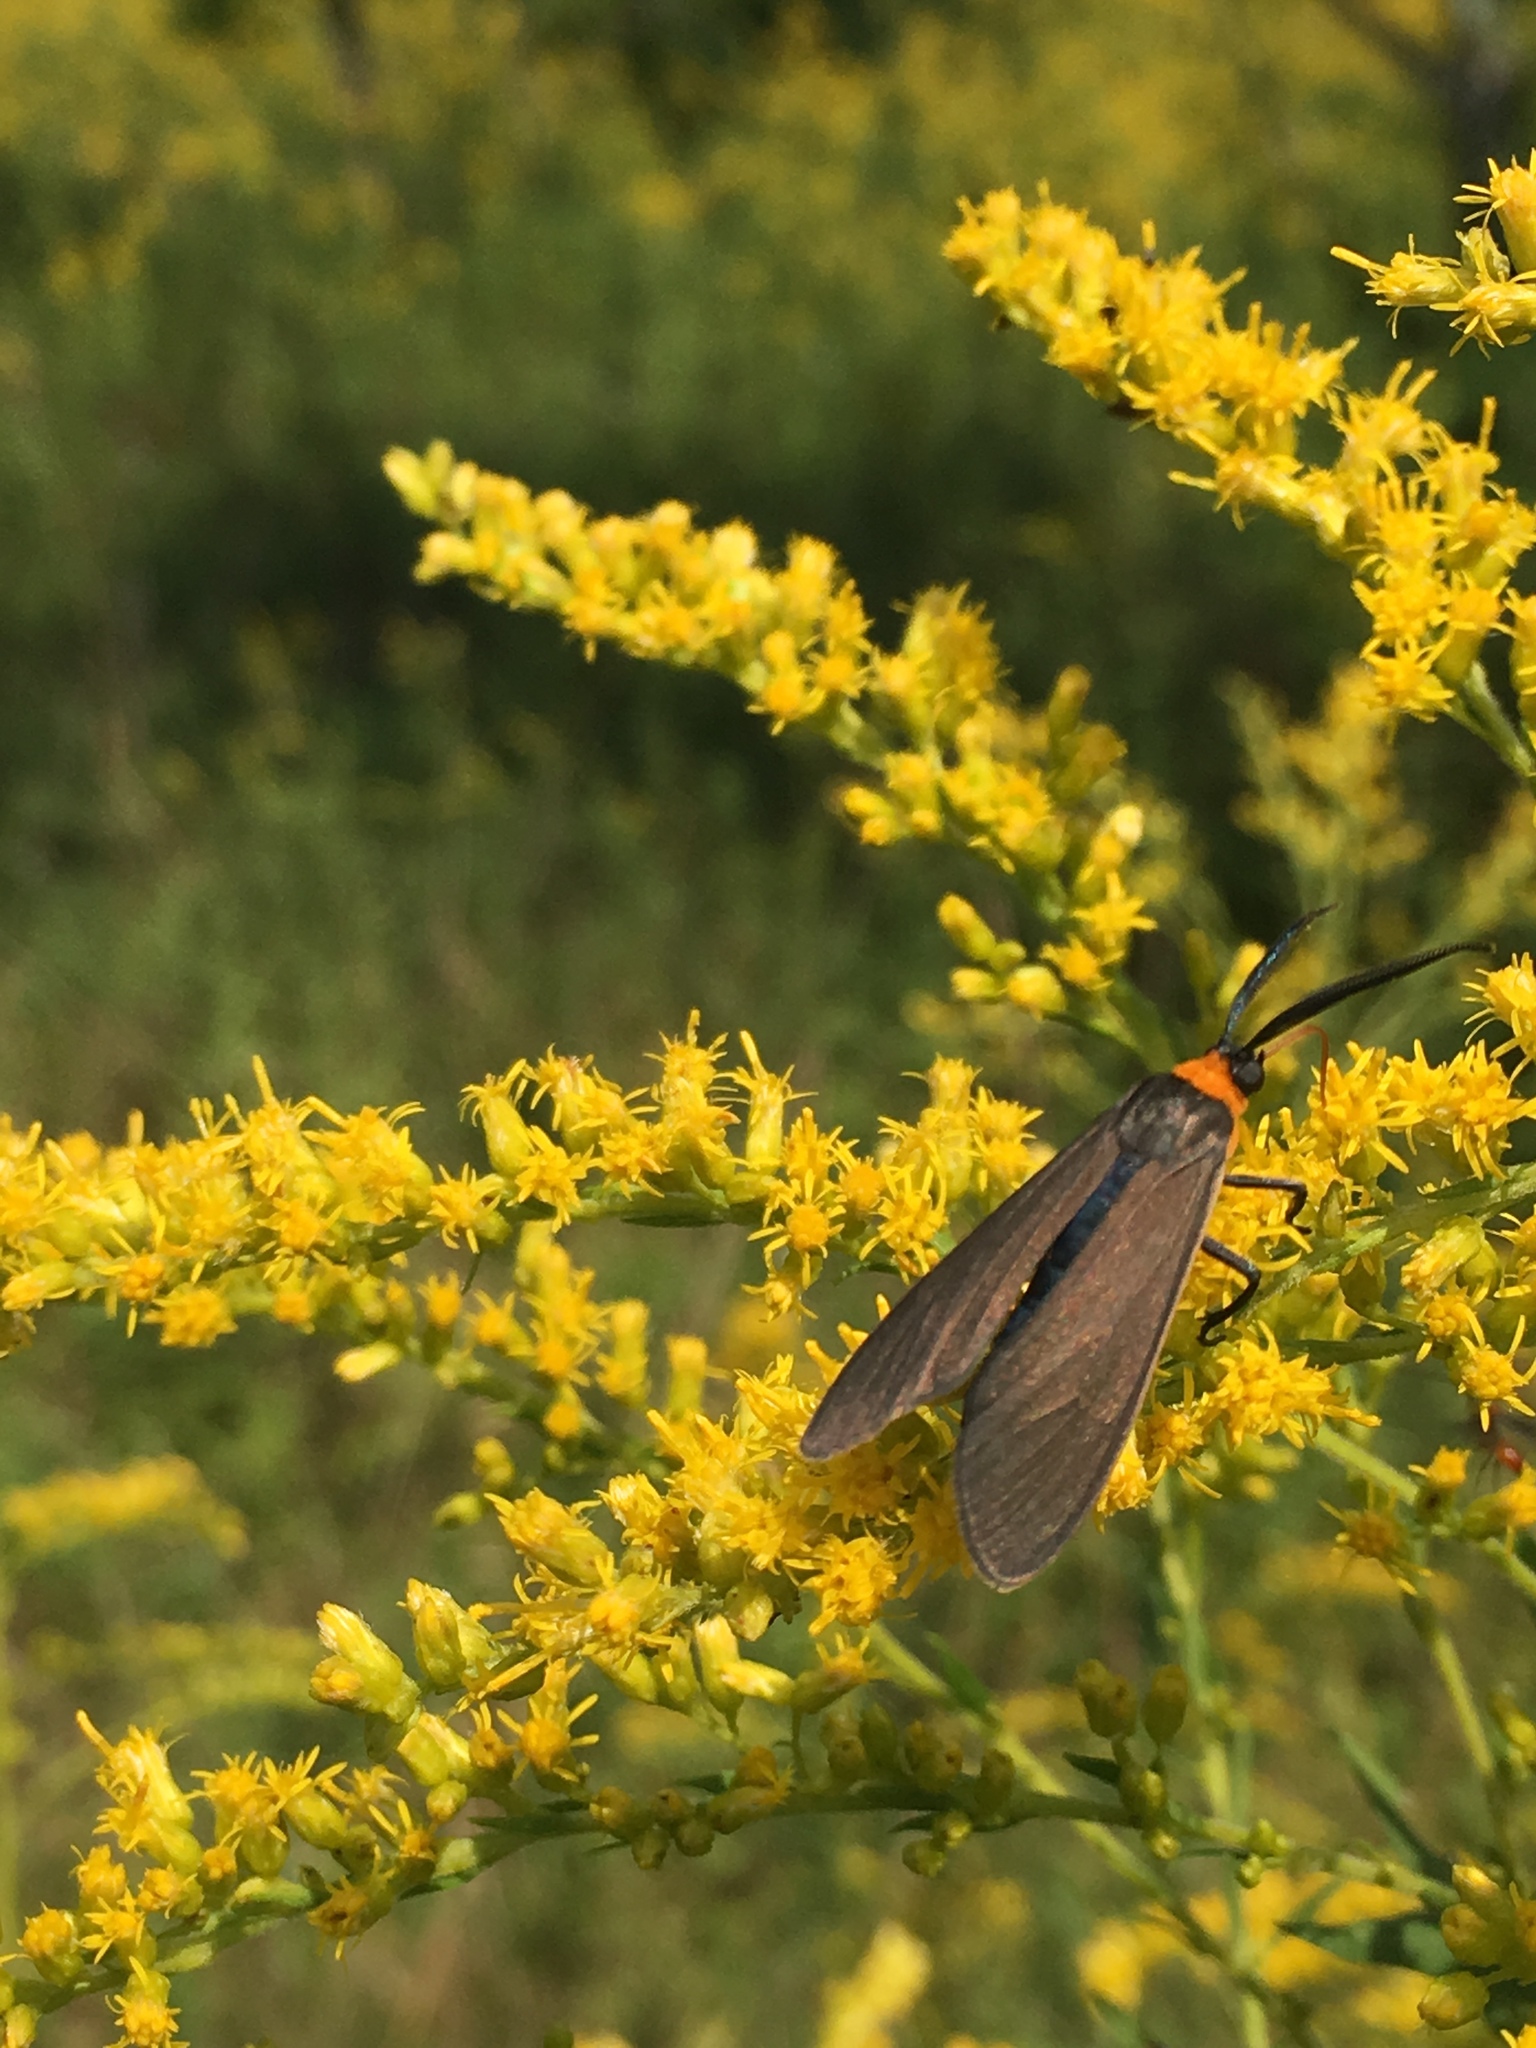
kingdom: Animalia
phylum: Arthropoda
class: Insecta
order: Lepidoptera
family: Erebidae
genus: Cisseps
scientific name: Cisseps fulvicollis
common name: Yellow-collared scape moth
